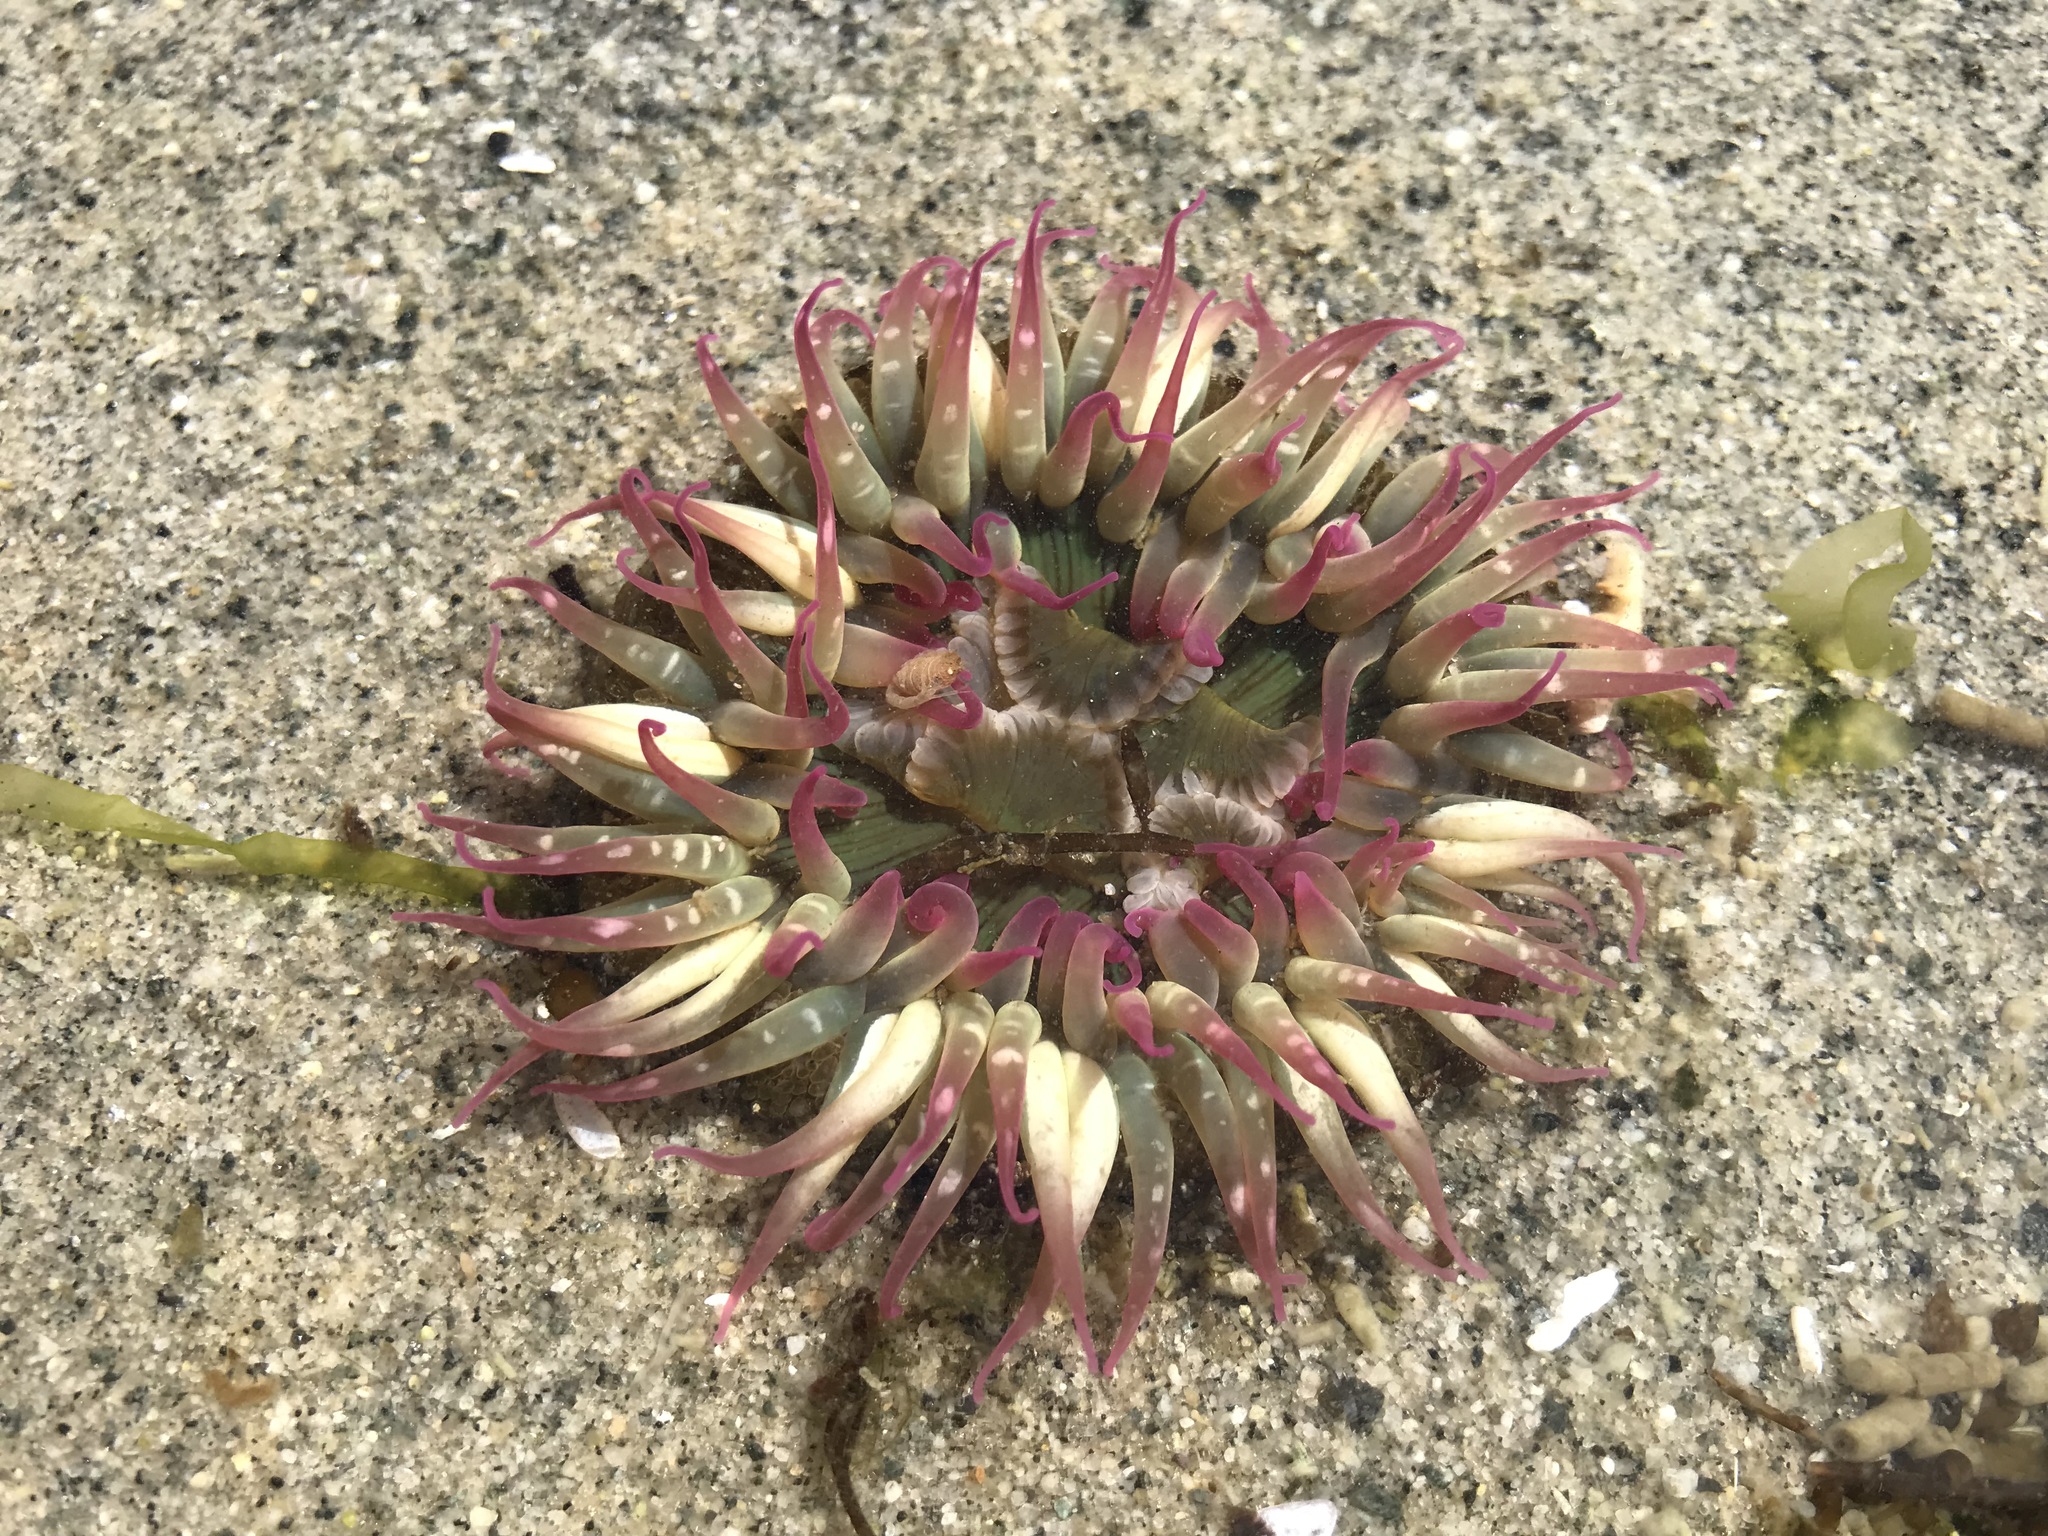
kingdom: Animalia
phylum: Cnidaria
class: Anthozoa
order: Actiniaria
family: Actiniidae
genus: Anthopleura
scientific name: Anthopleura elegantissima
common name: Clonal anemone
